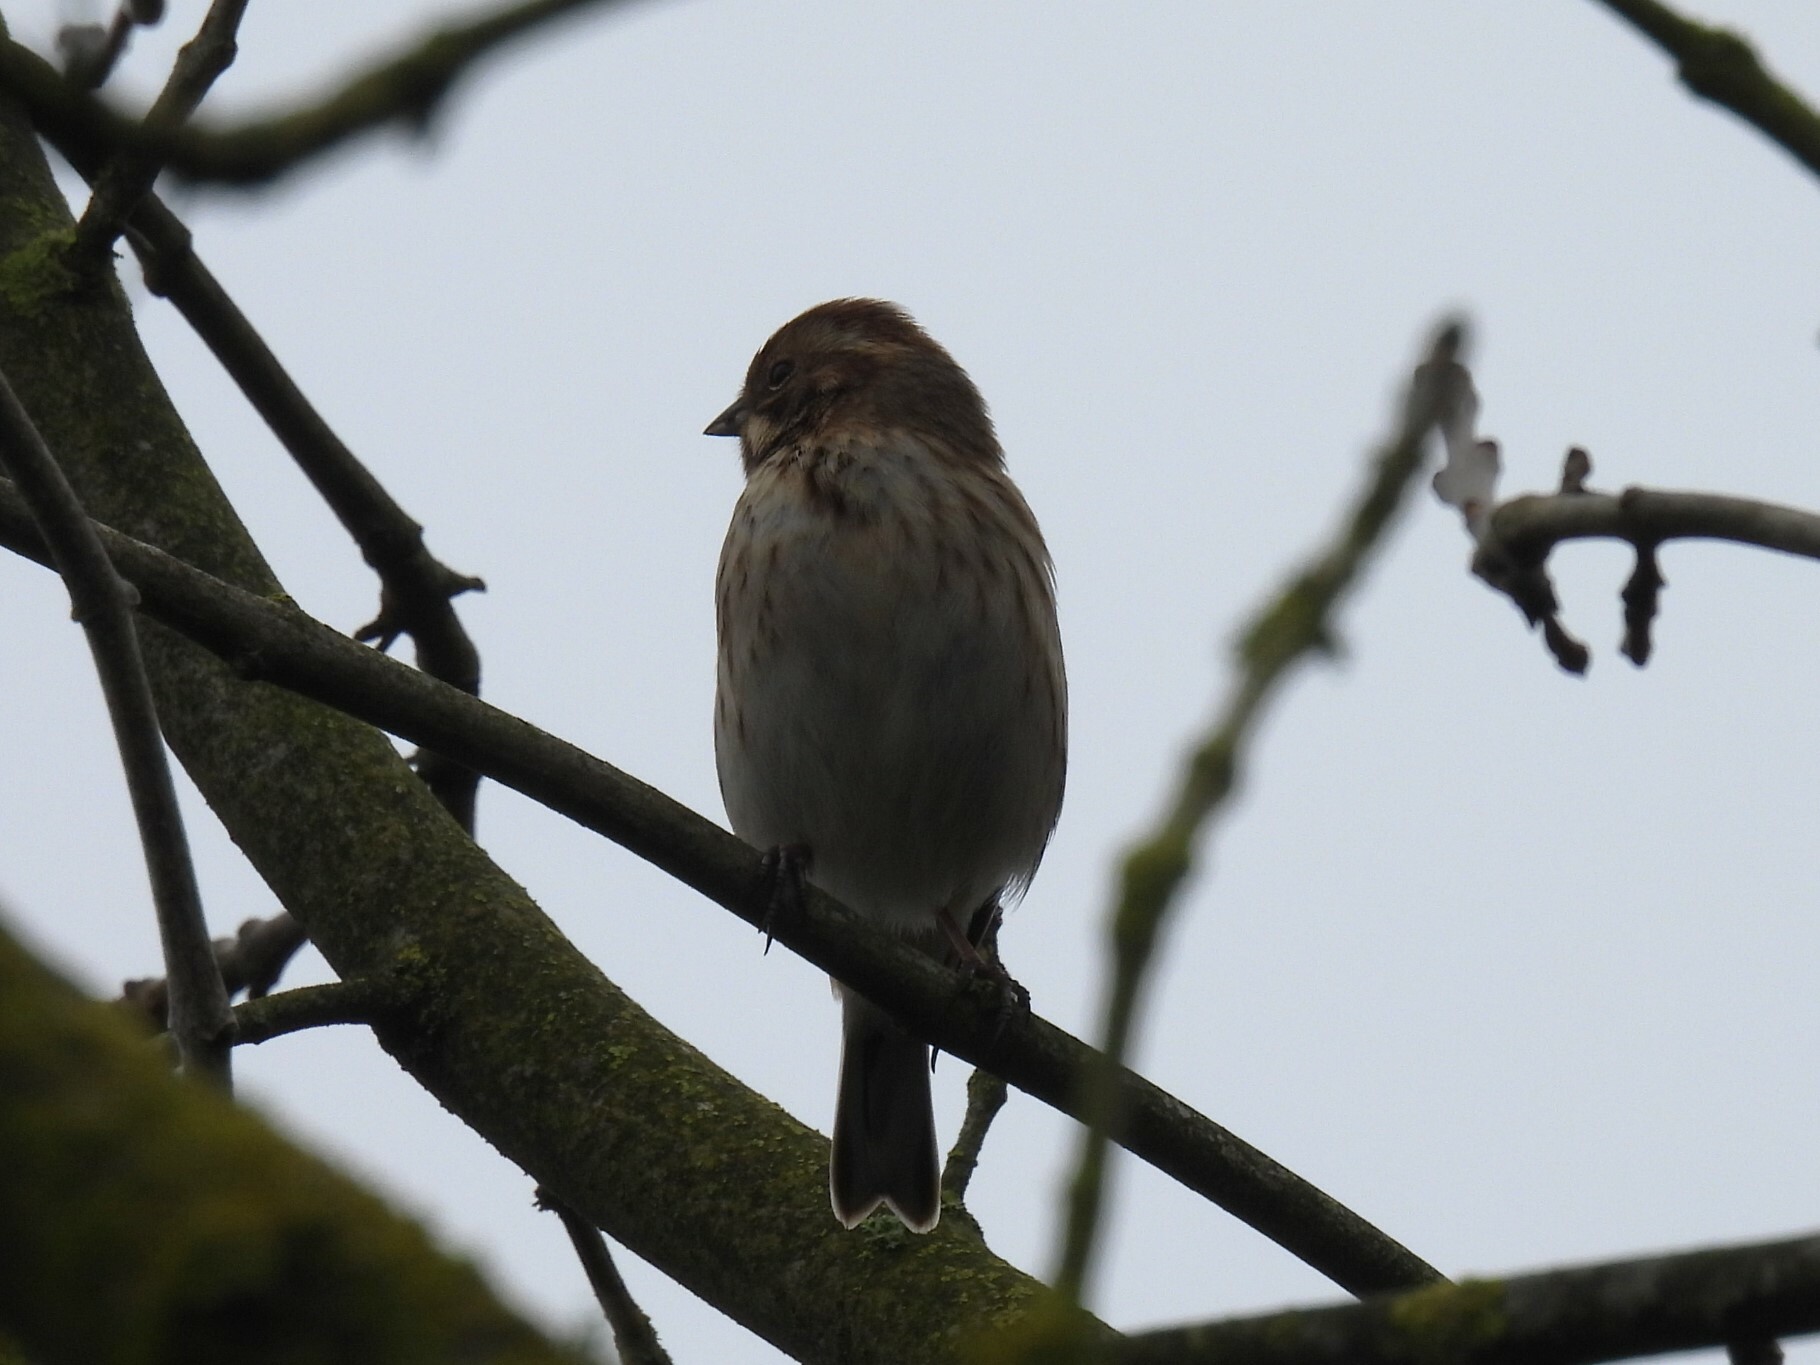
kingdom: Animalia
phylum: Chordata
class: Aves
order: Passeriformes
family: Emberizidae
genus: Emberiza
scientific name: Emberiza schoeniclus
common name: Reed bunting
